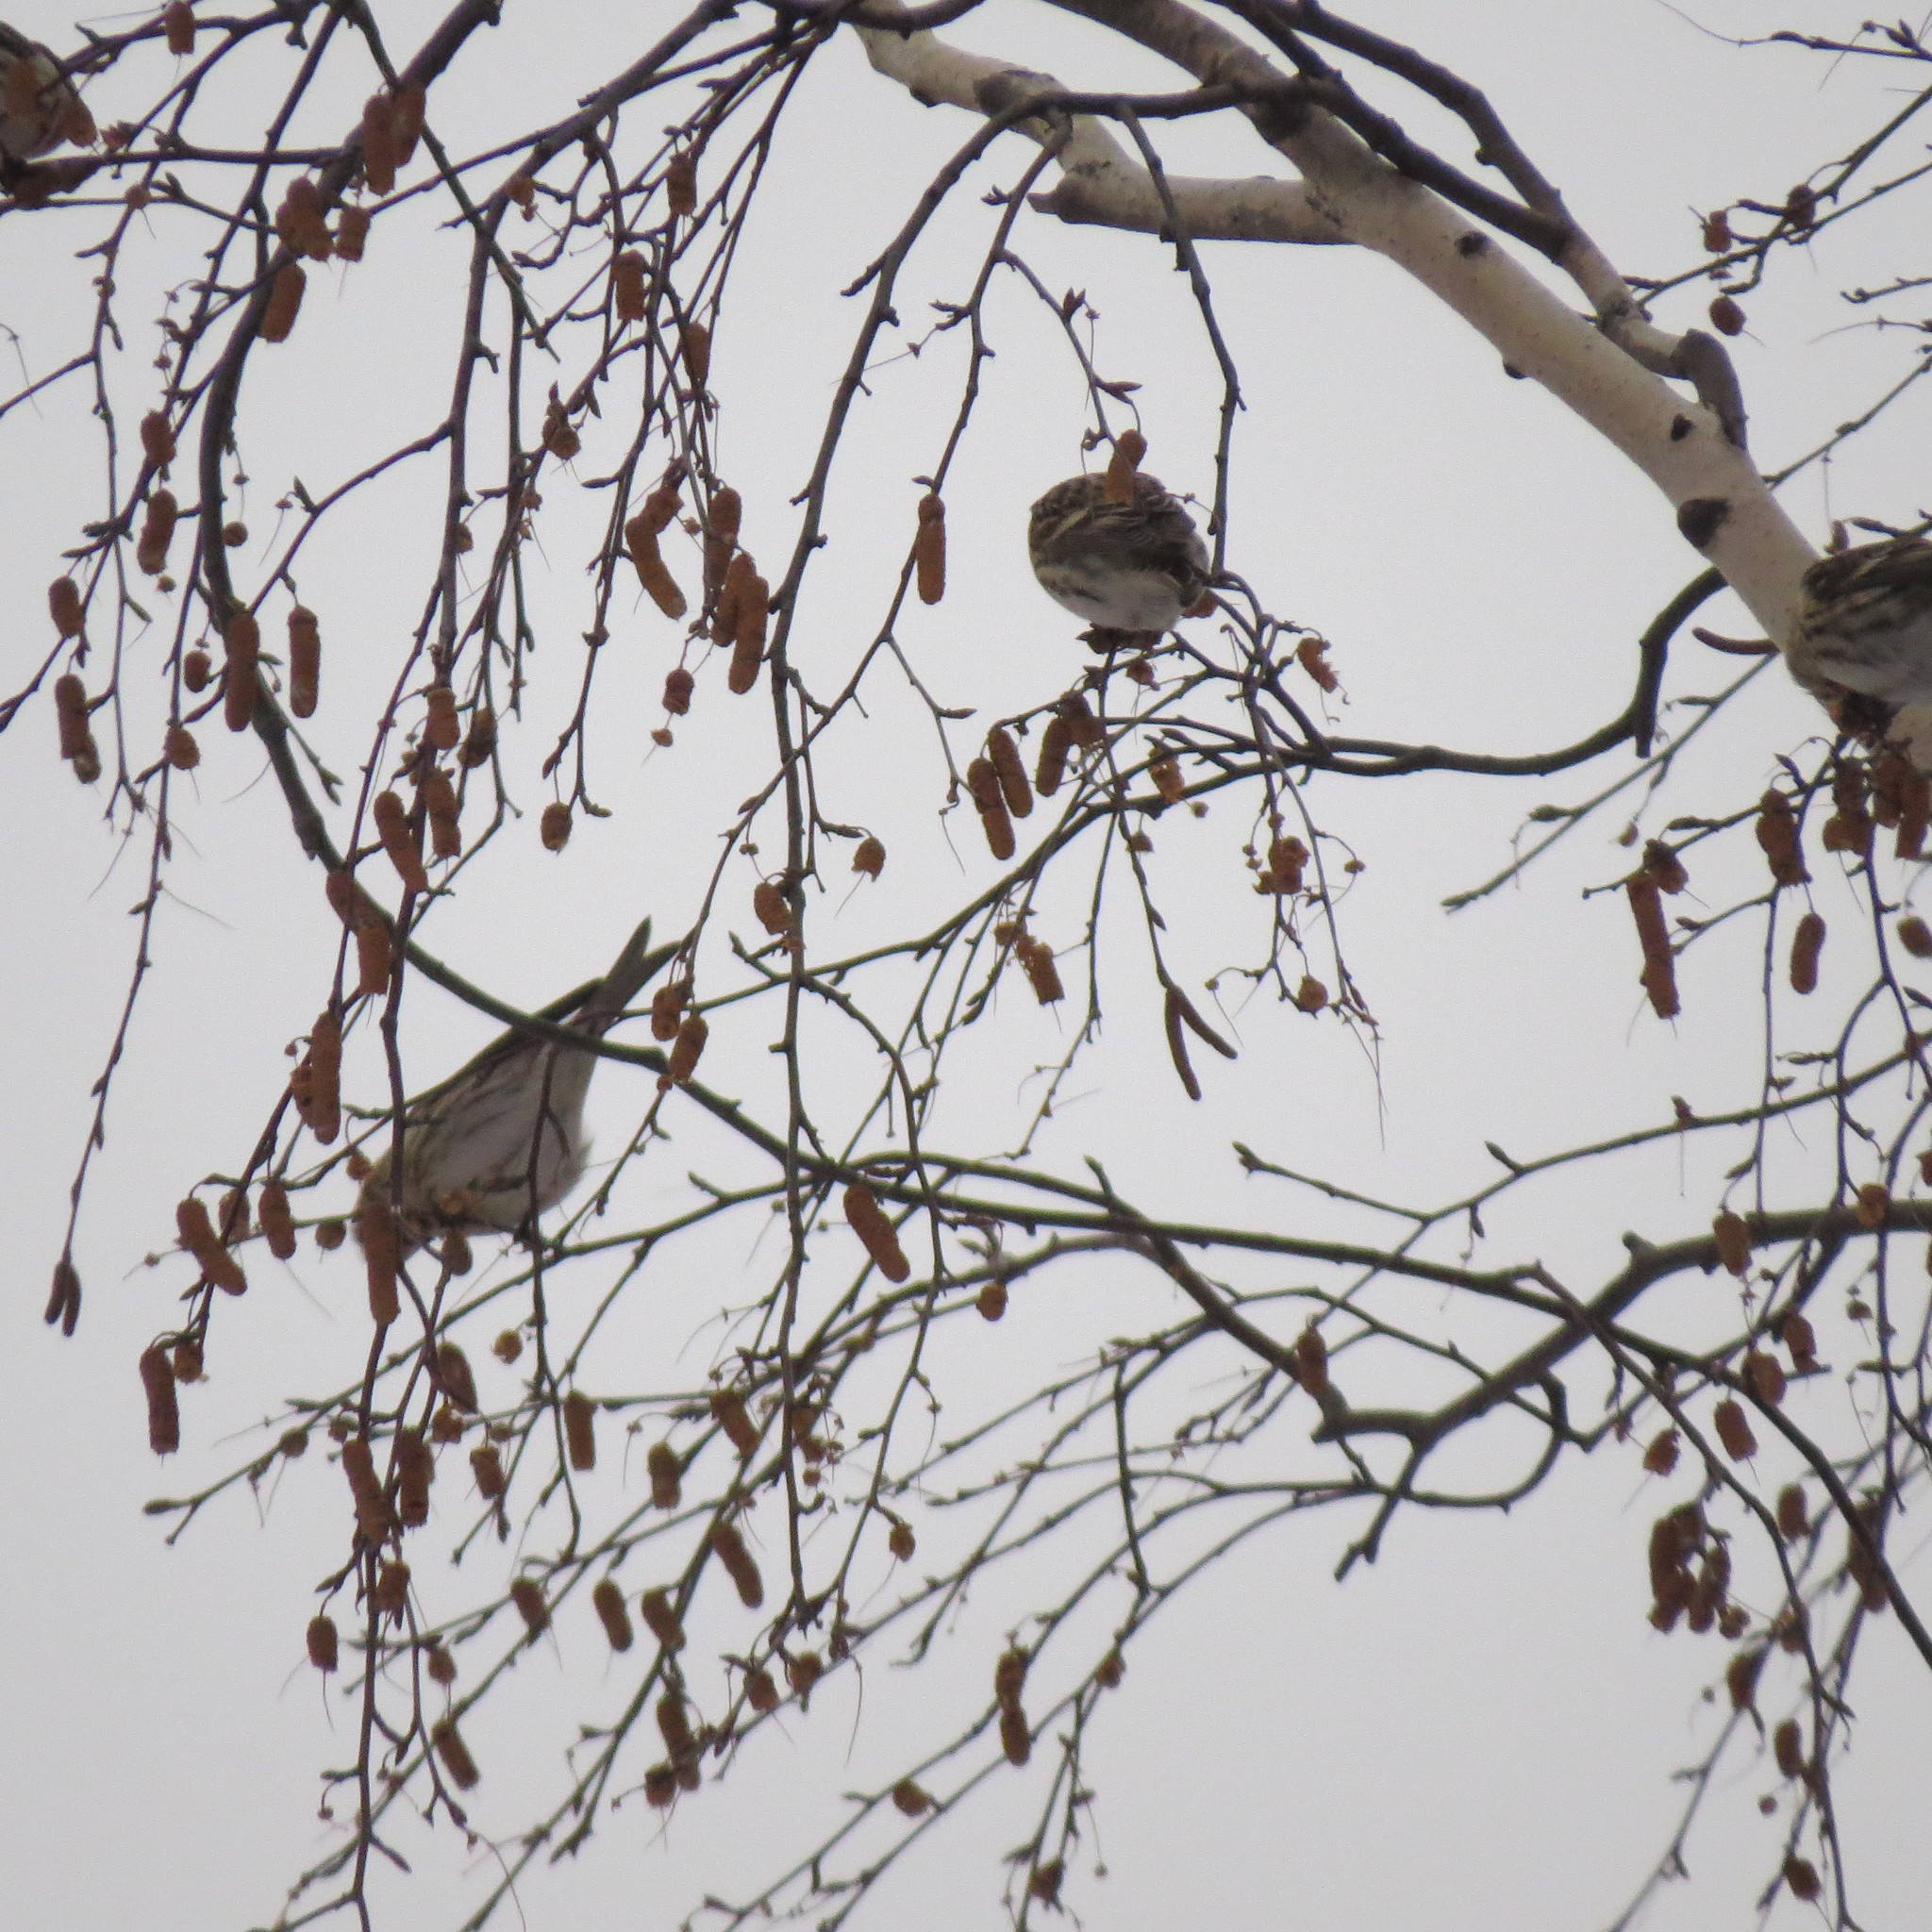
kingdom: Animalia
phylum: Chordata
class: Aves
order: Passeriformes
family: Fringillidae
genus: Acanthis
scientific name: Acanthis flammea
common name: Common redpoll
